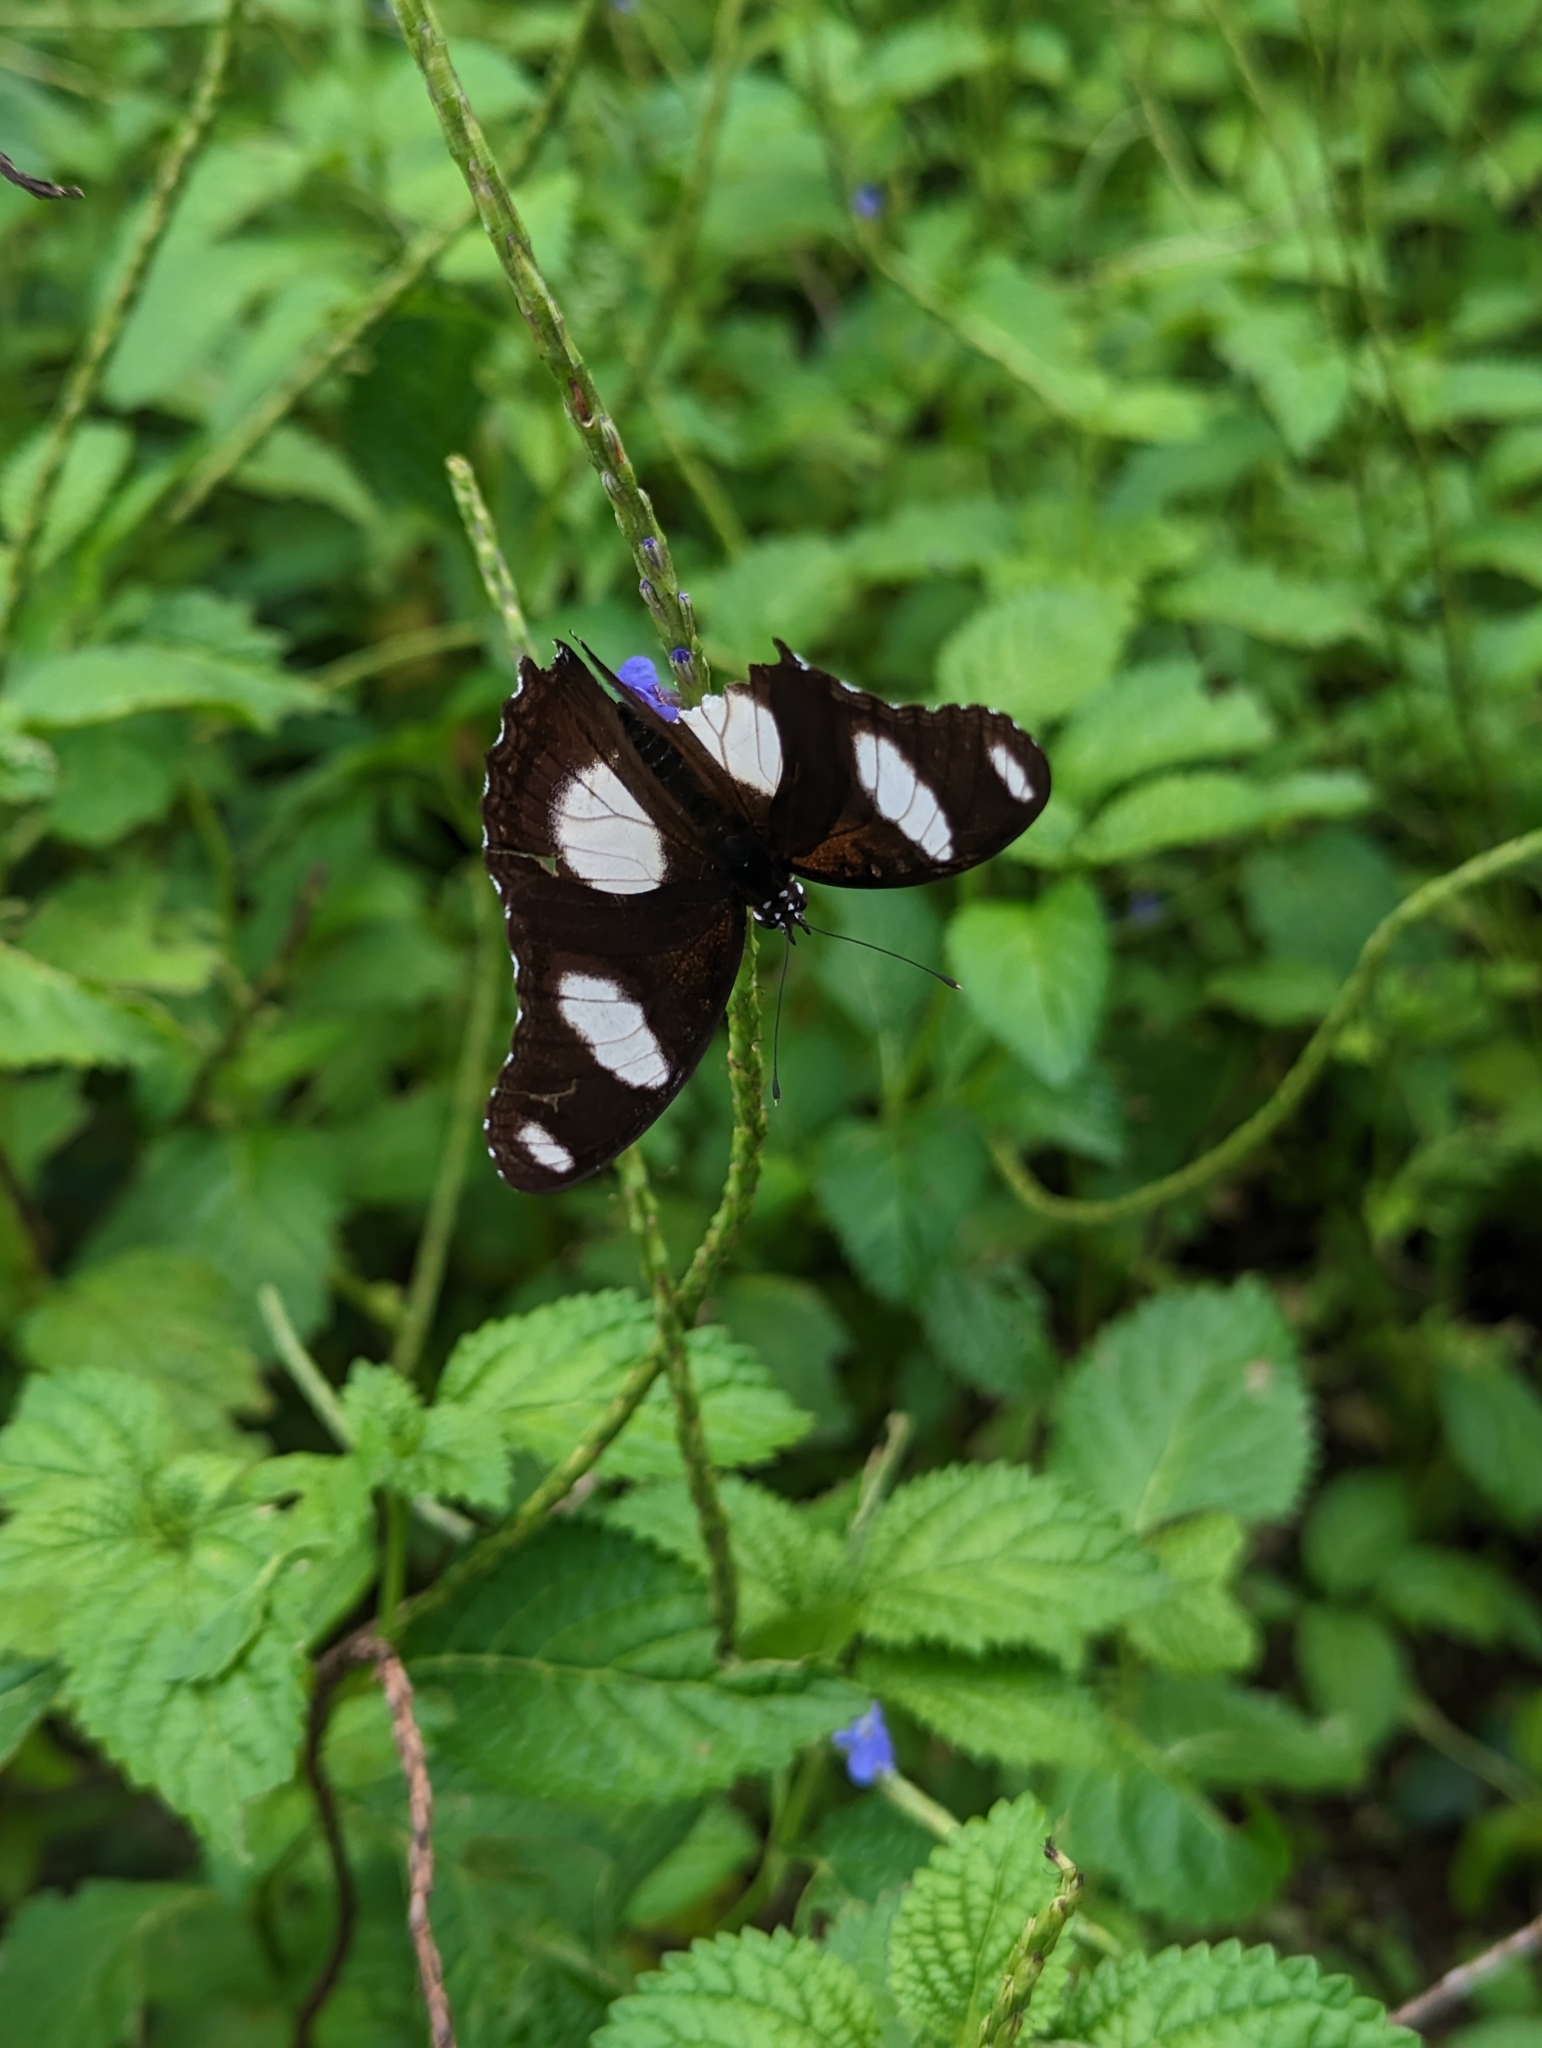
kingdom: Animalia
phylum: Arthropoda
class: Insecta
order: Lepidoptera
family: Nymphalidae
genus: Hypolimnas
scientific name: Hypolimnas misippus
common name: False plain tiger
